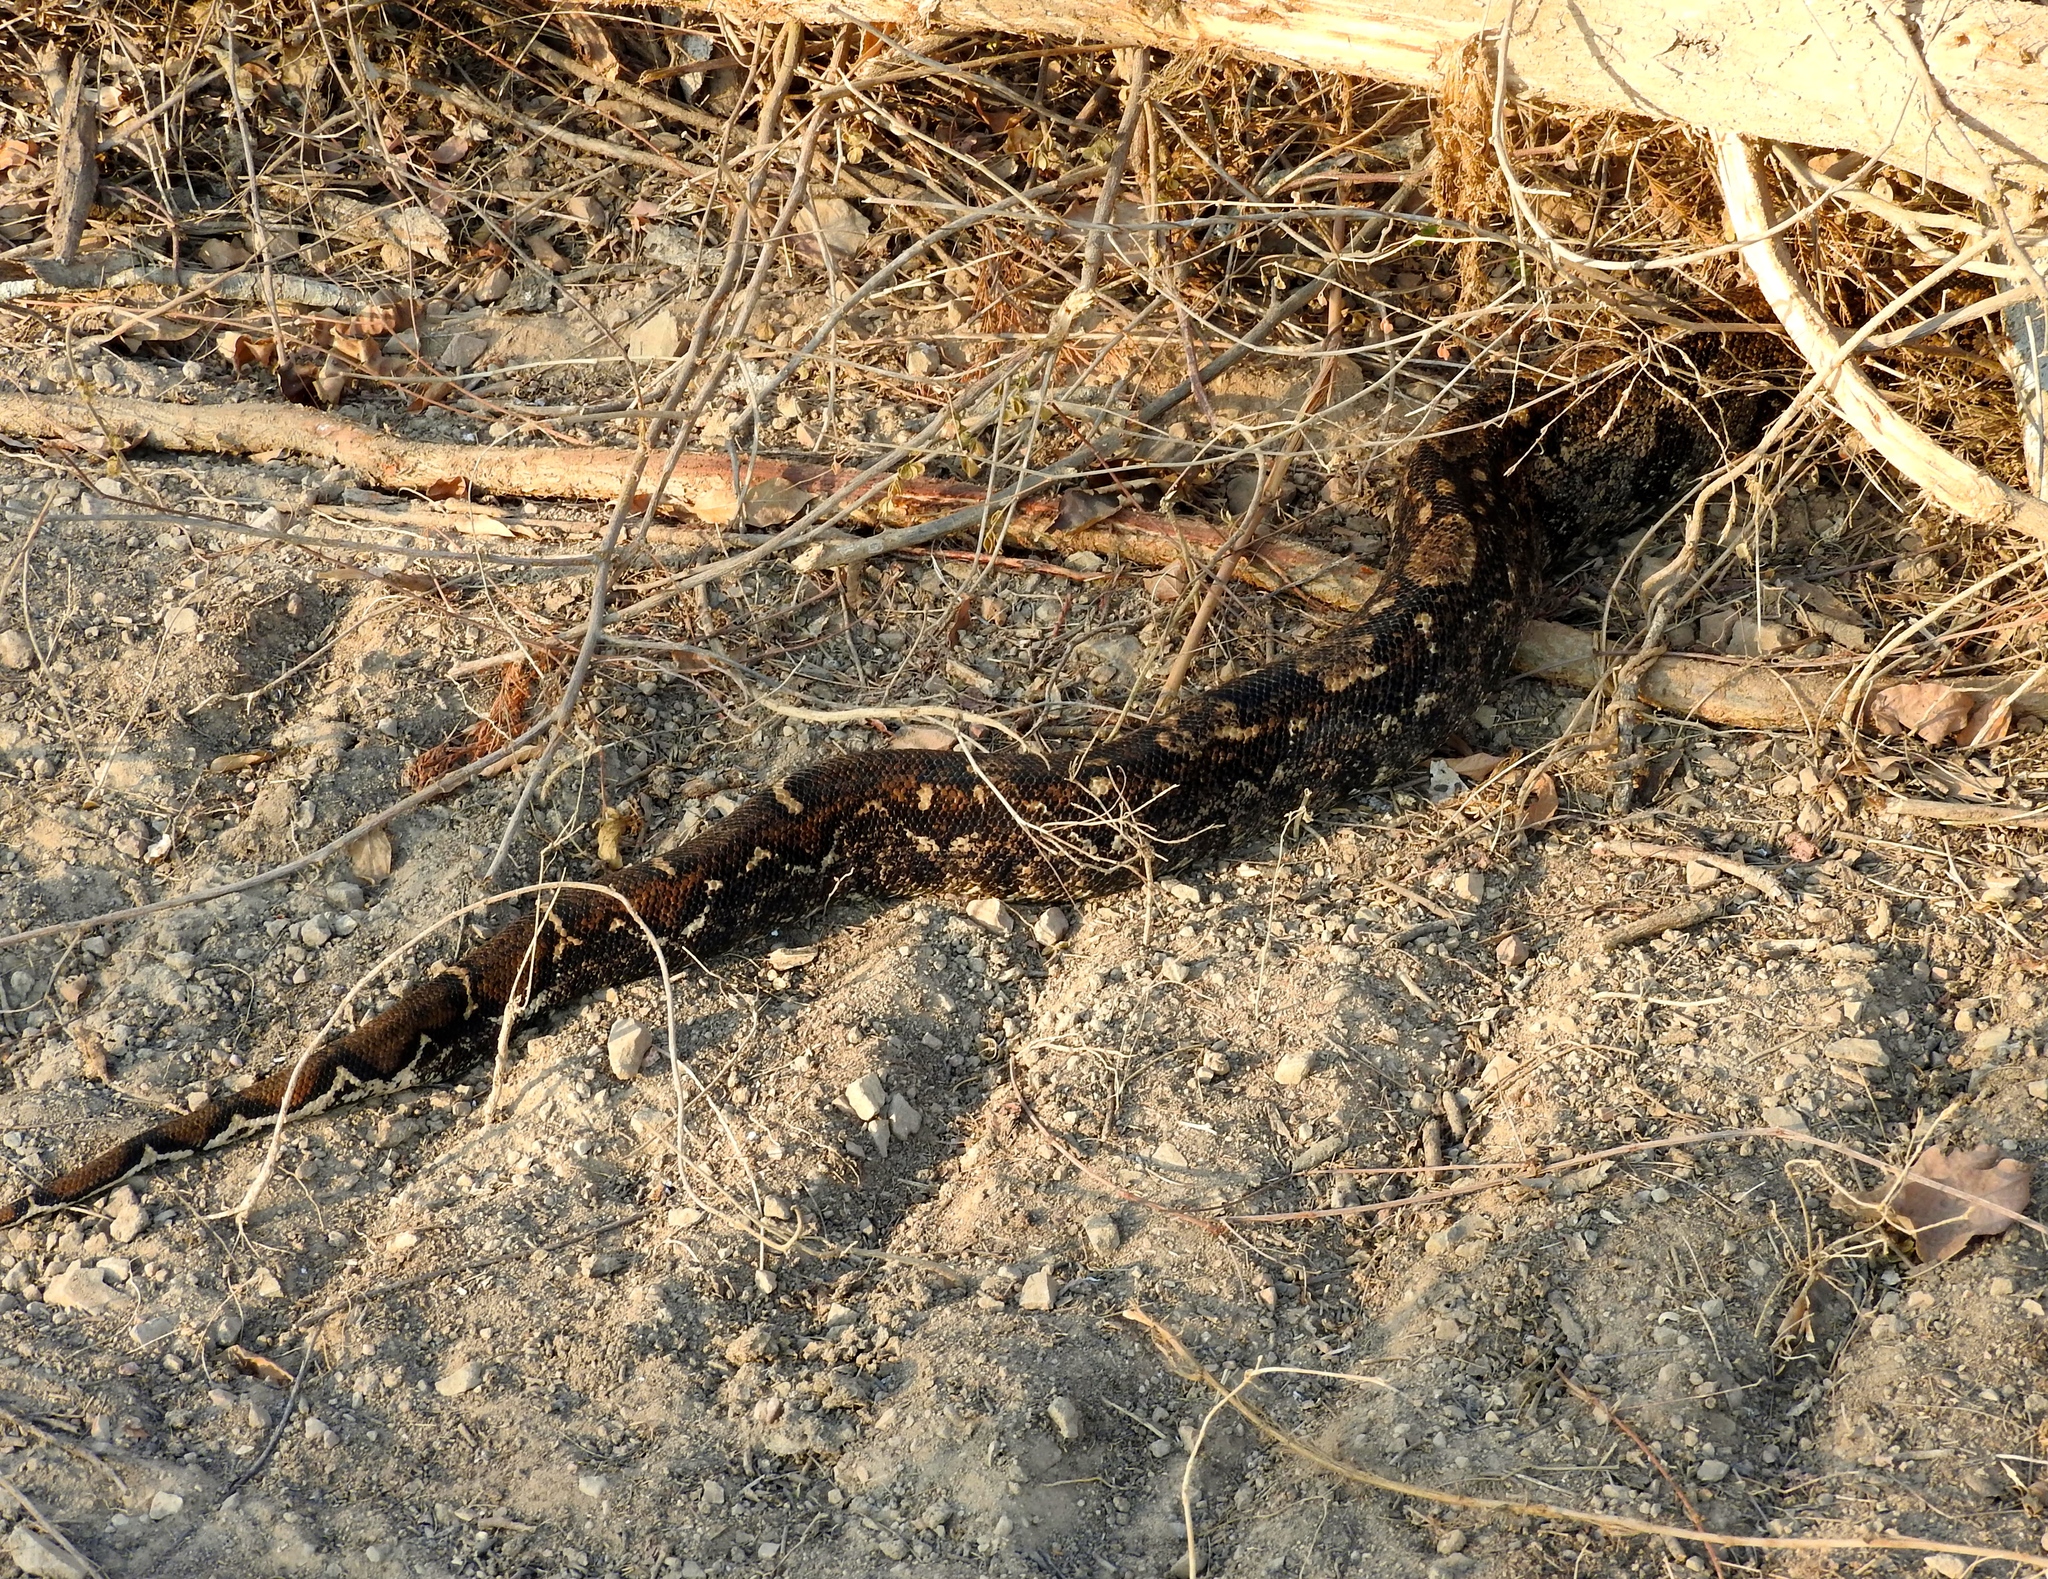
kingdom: Animalia
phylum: Chordata
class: Squamata
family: Boidae
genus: Boa
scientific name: Boa
